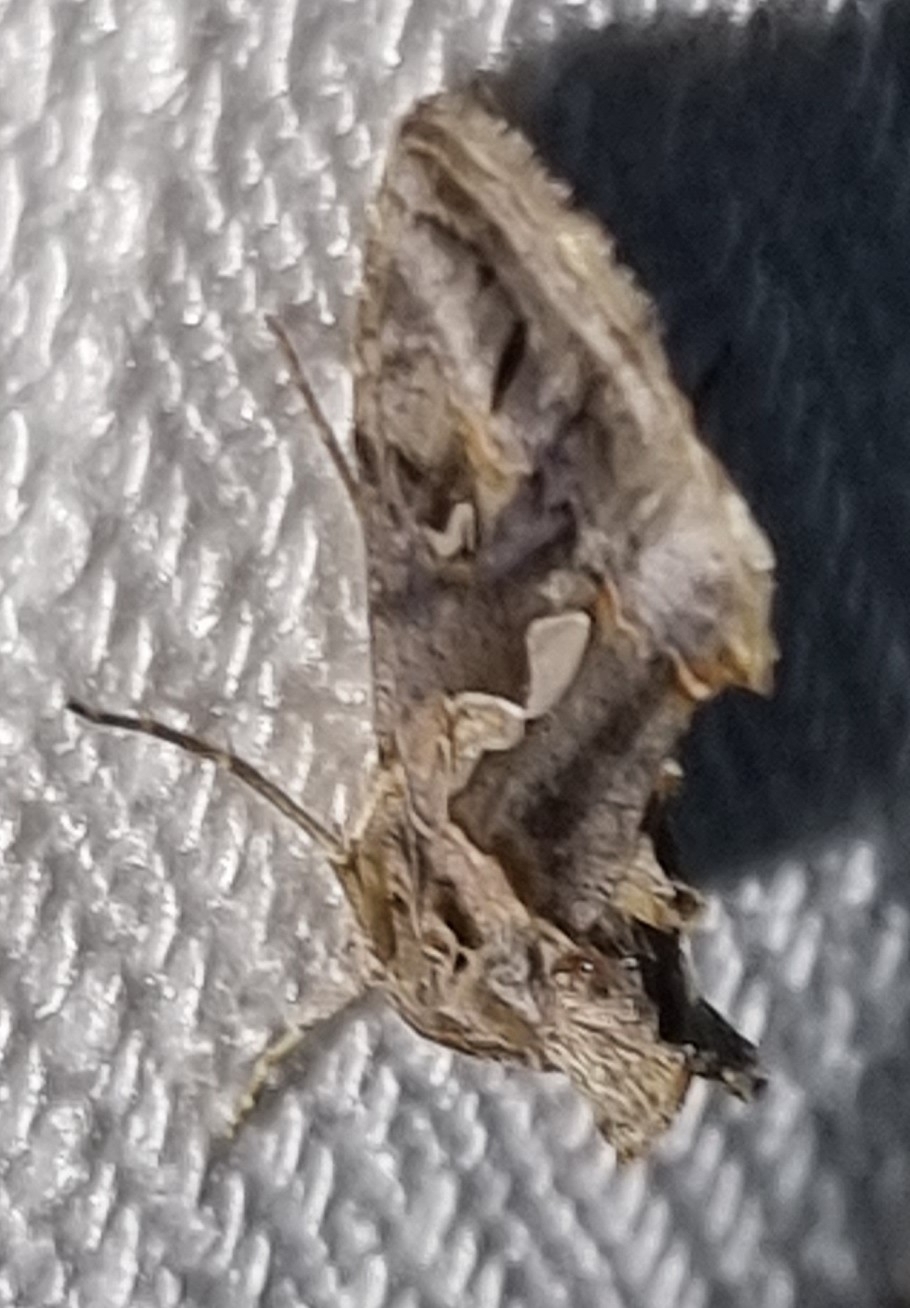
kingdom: Animalia
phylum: Arthropoda
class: Insecta
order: Lepidoptera
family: Noctuidae
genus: Chrysodeixis
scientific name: Chrysodeixis argentifera
